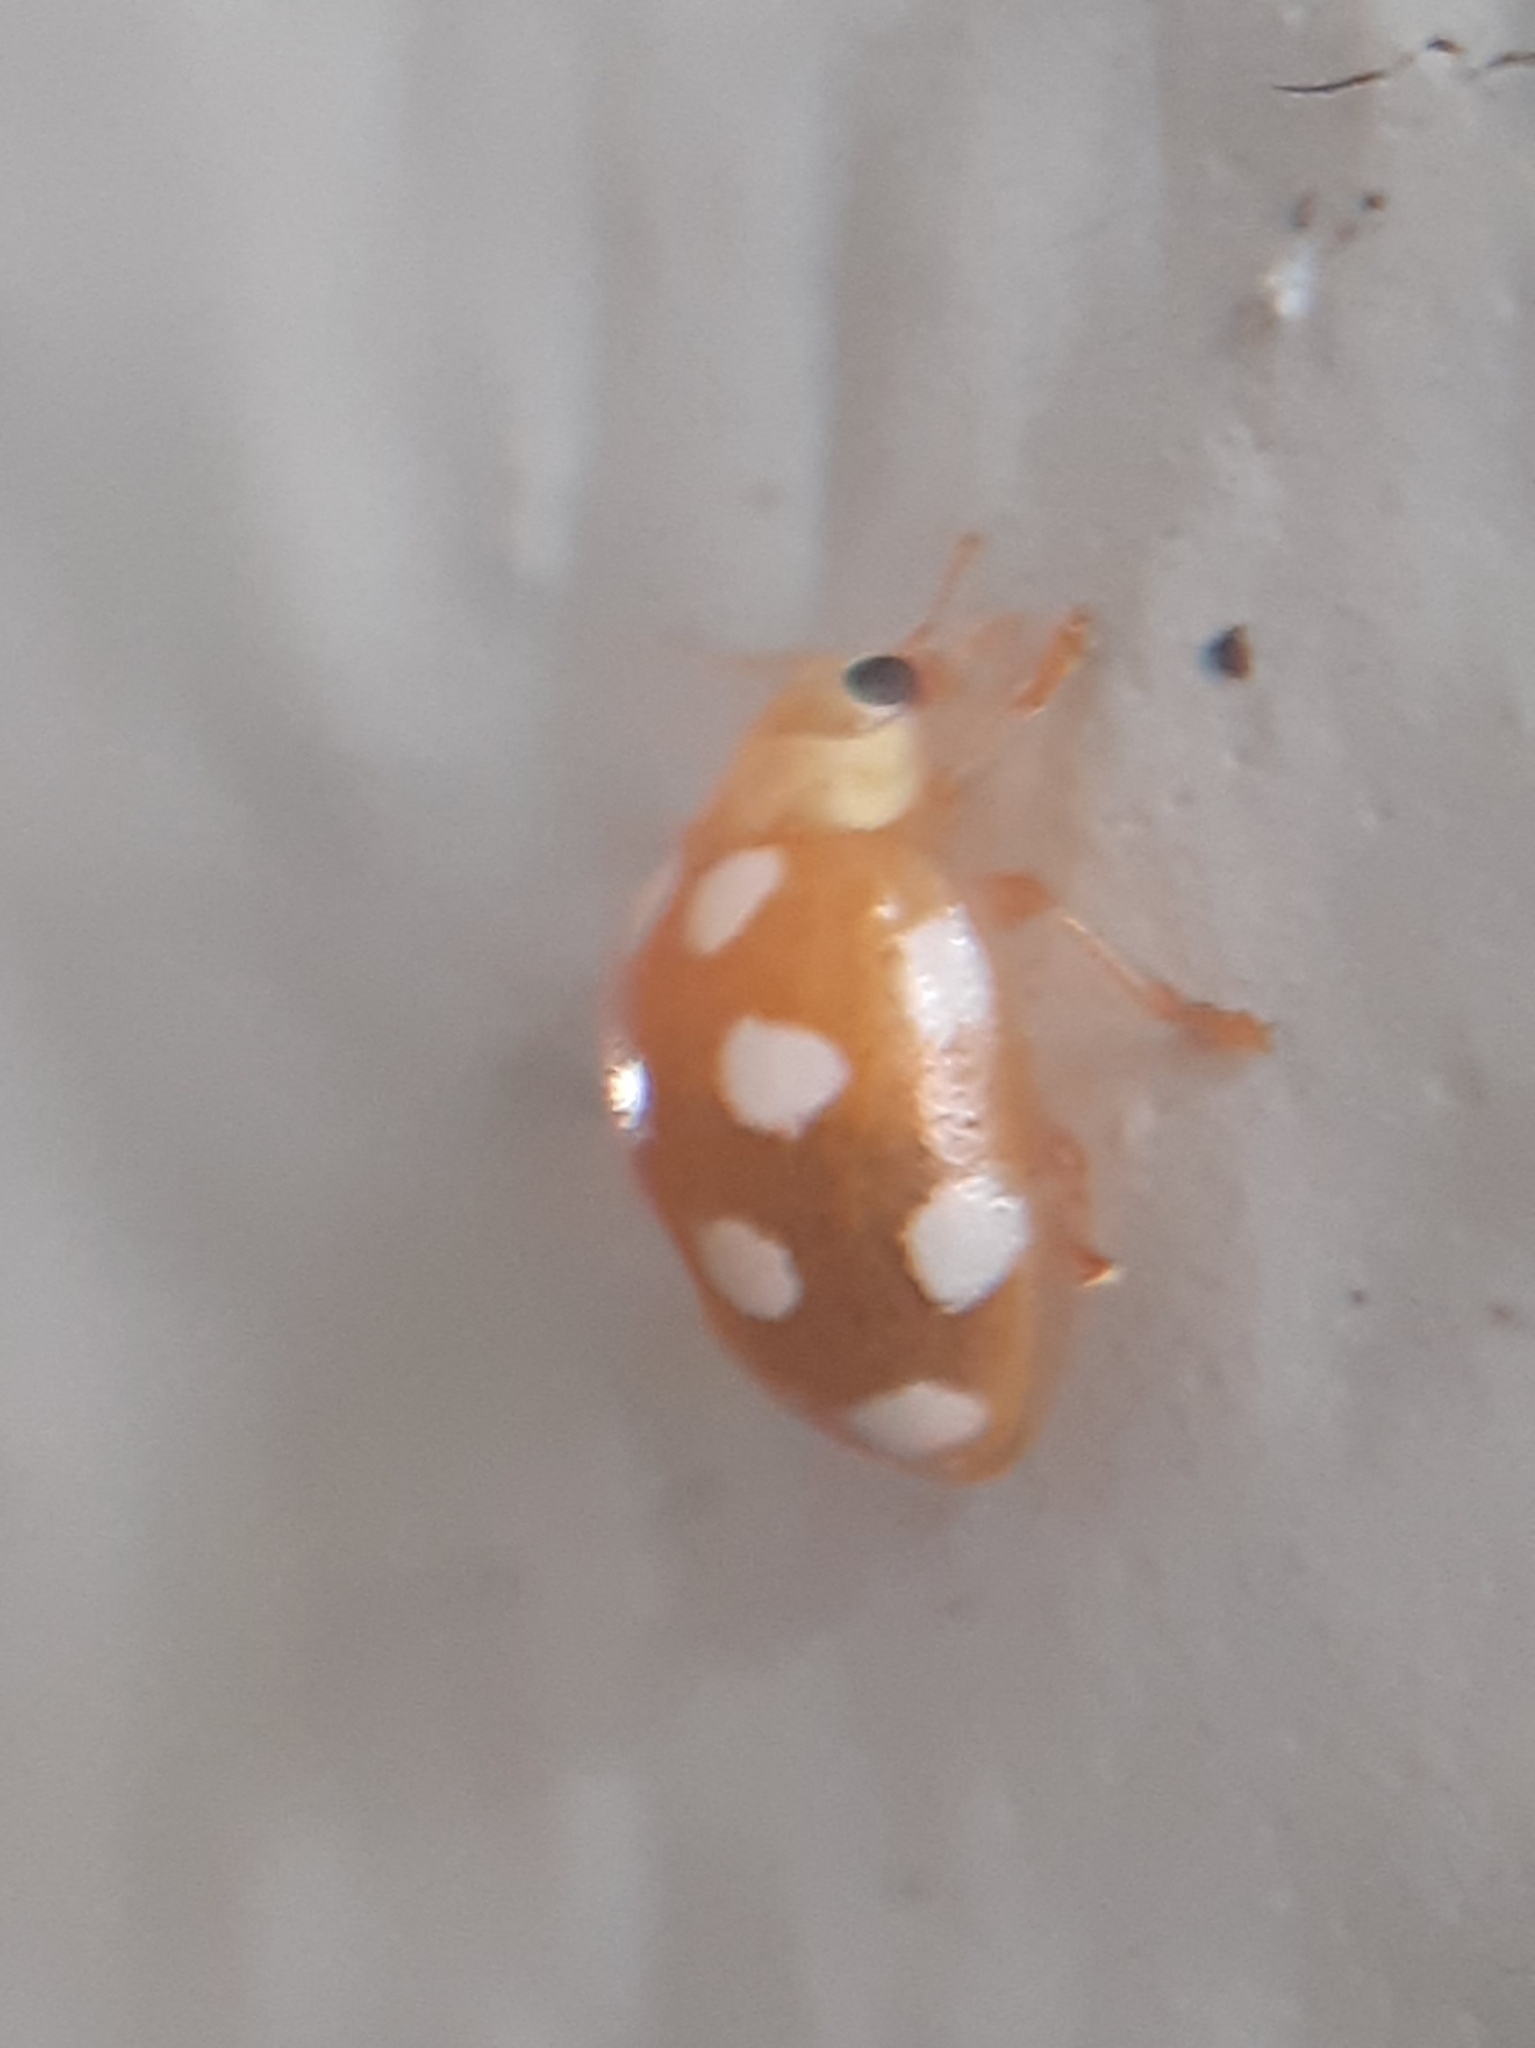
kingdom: Animalia
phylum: Arthropoda
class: Insecta
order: Coleoptera
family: Coccinellidae
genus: Vibidia
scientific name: Vibidia duodecimguttata
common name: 12-spot ladybird
